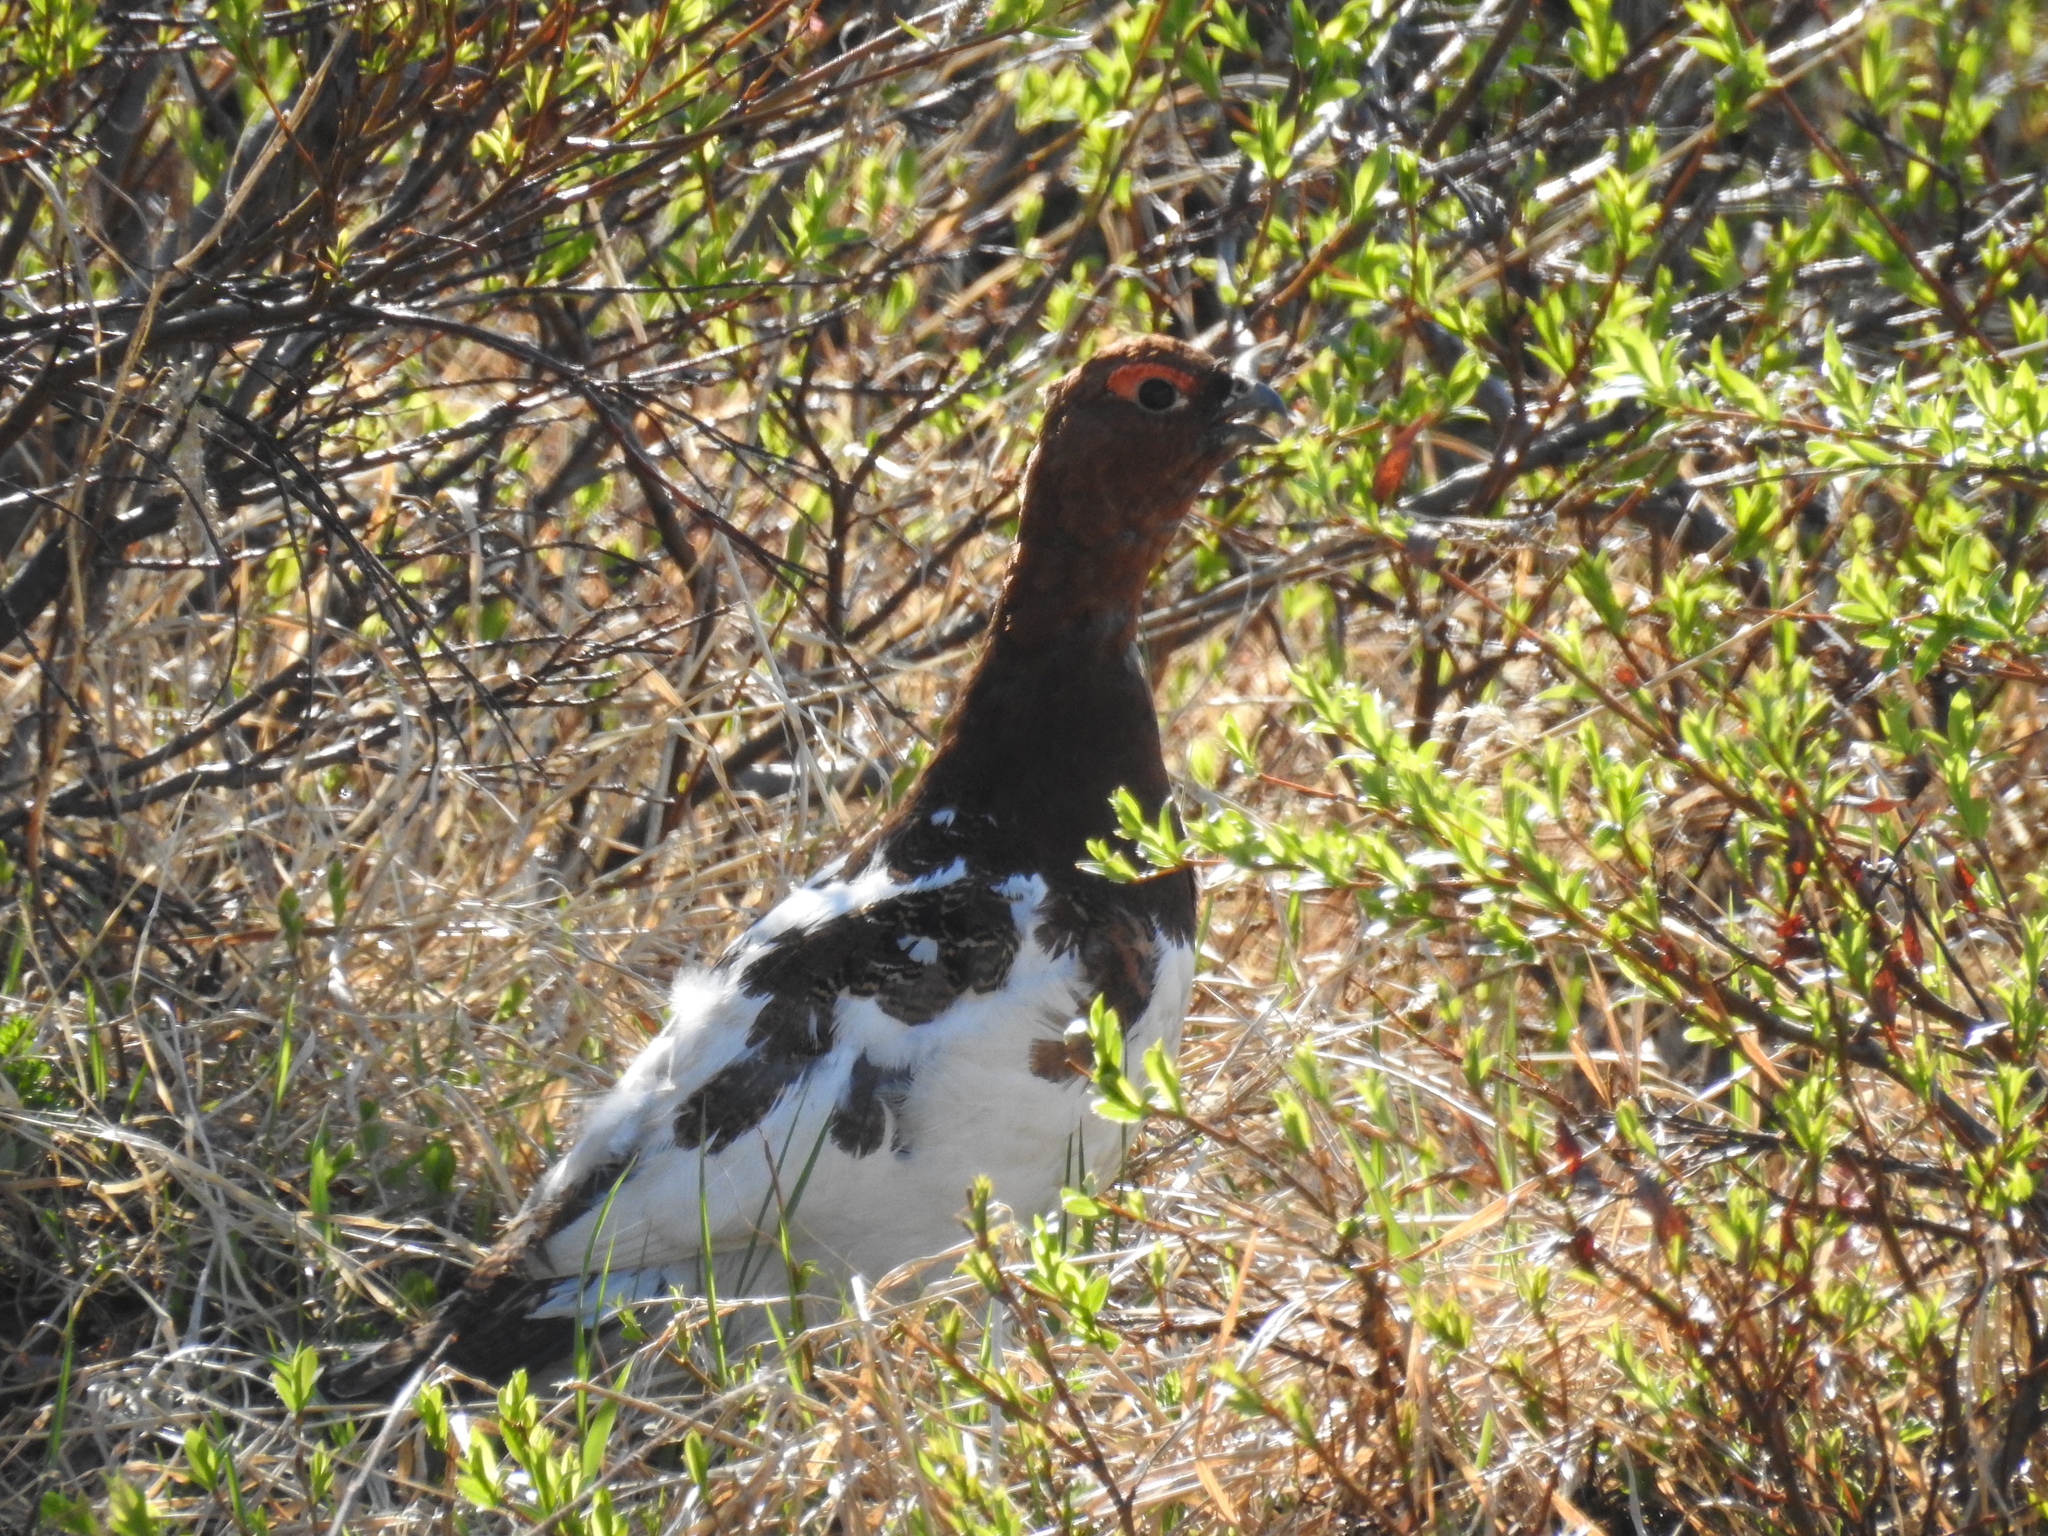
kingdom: Animalia
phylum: Chordata
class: Aves
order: Galliformes
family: Phasianidae
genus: Lagopus
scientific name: Lagopus lagopus
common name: Willow ptarmigan
